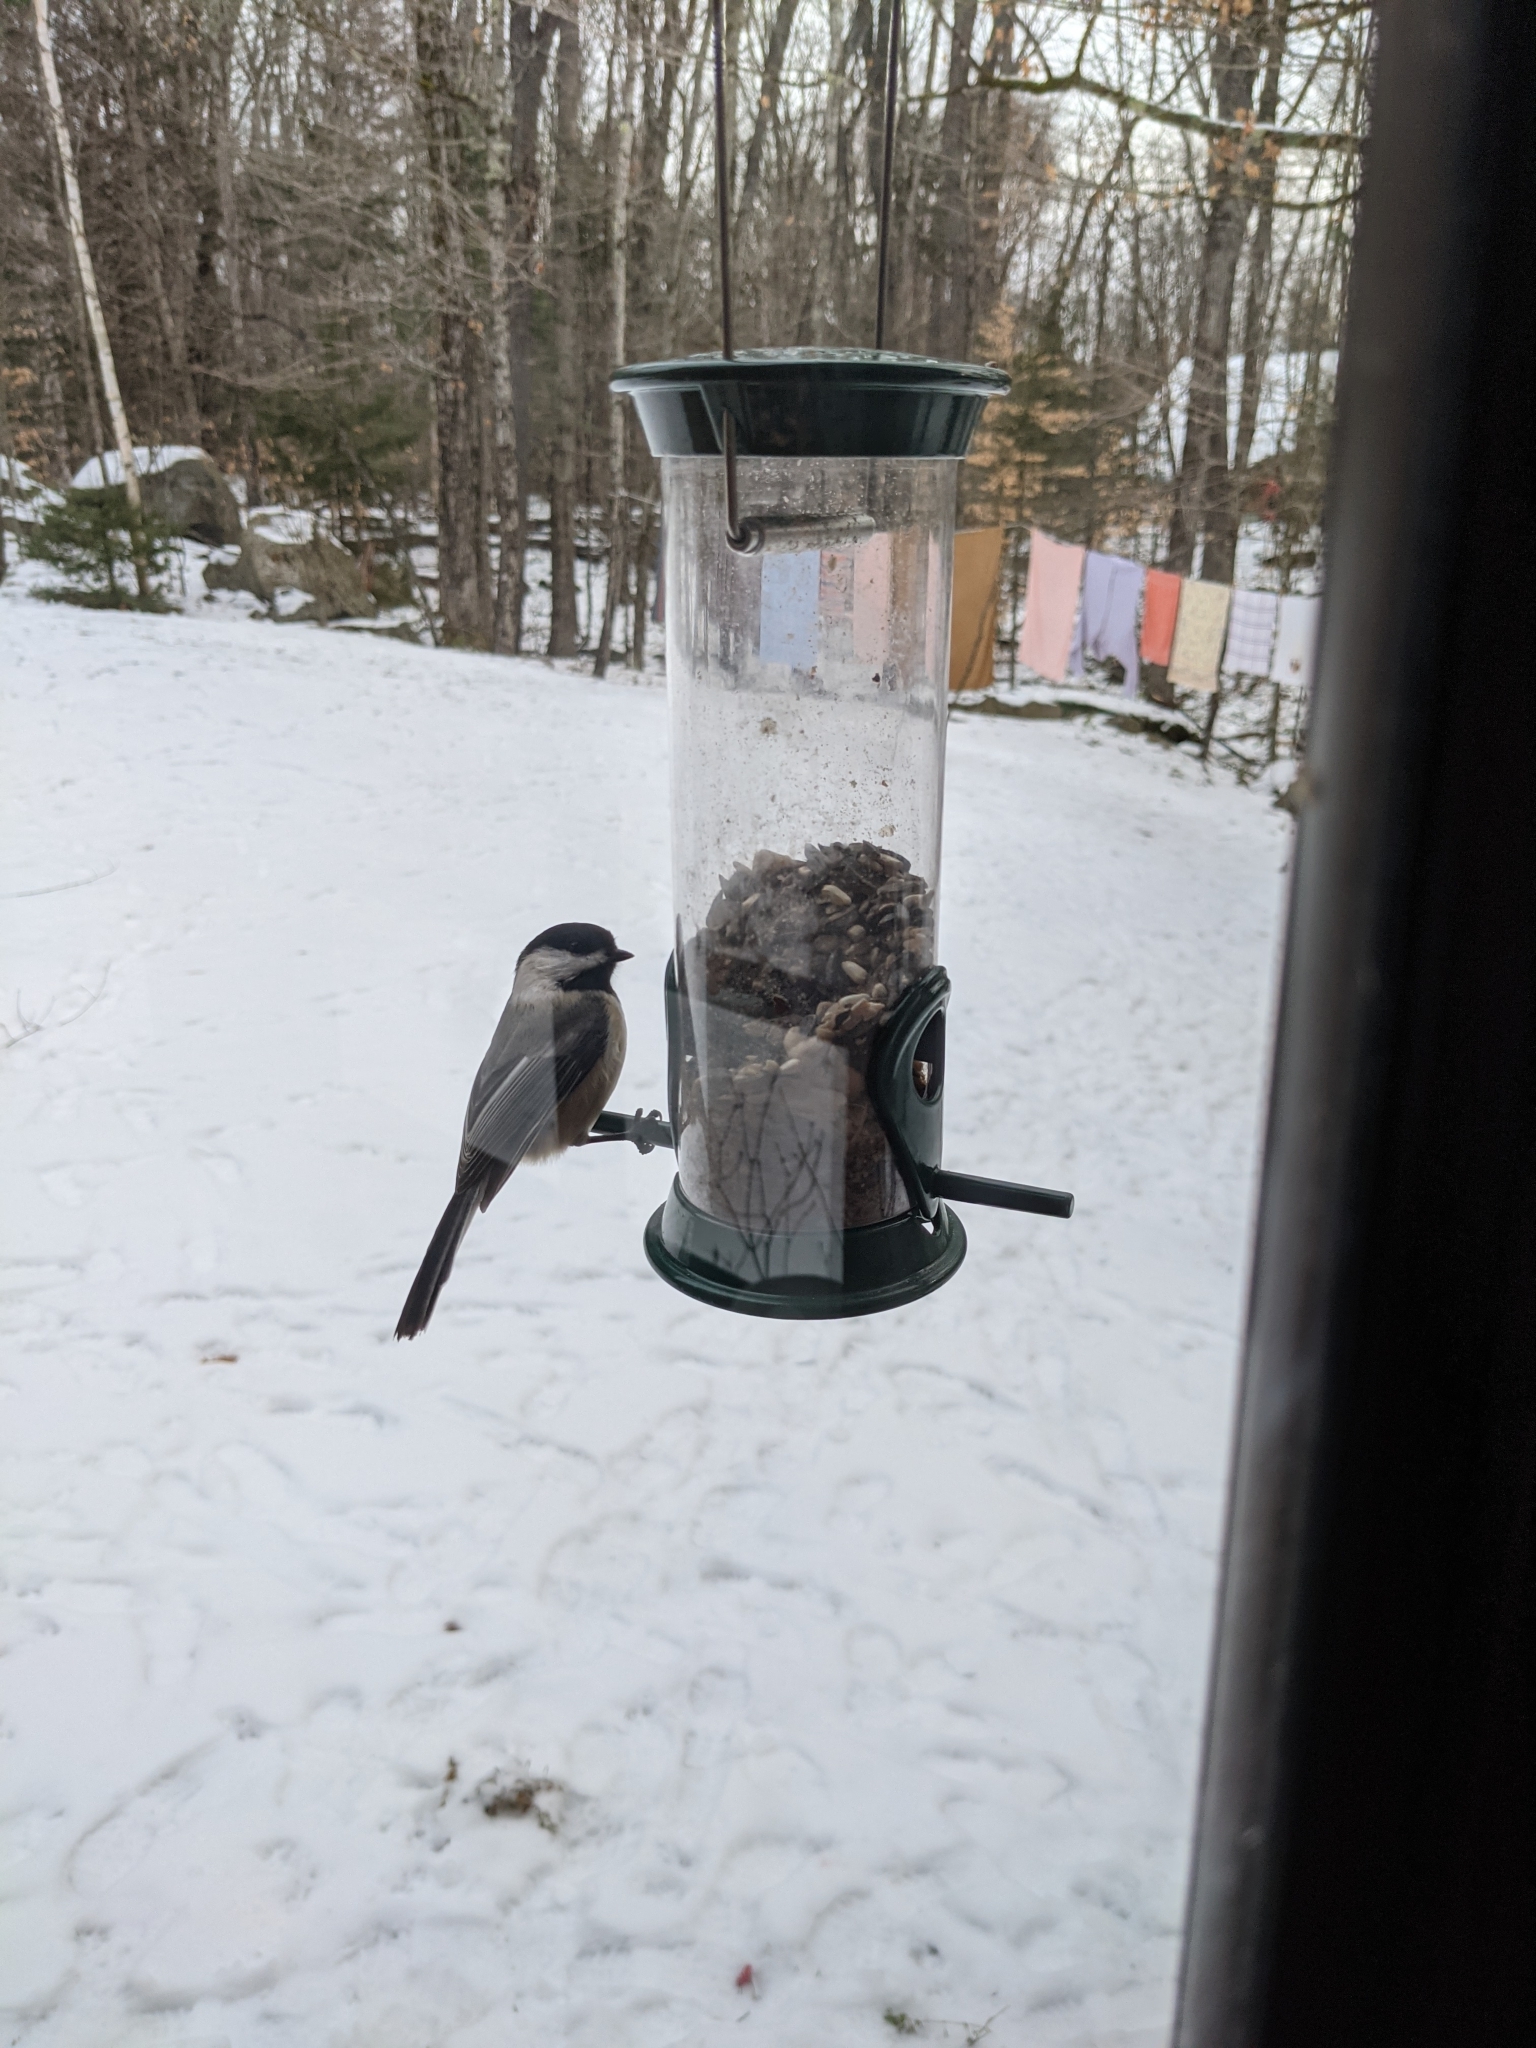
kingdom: Animalia
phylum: Chordata
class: Aves
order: Passeriformes
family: Paridae
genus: Poecile
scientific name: Poecile atricapillus
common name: Black-capped chickadee
